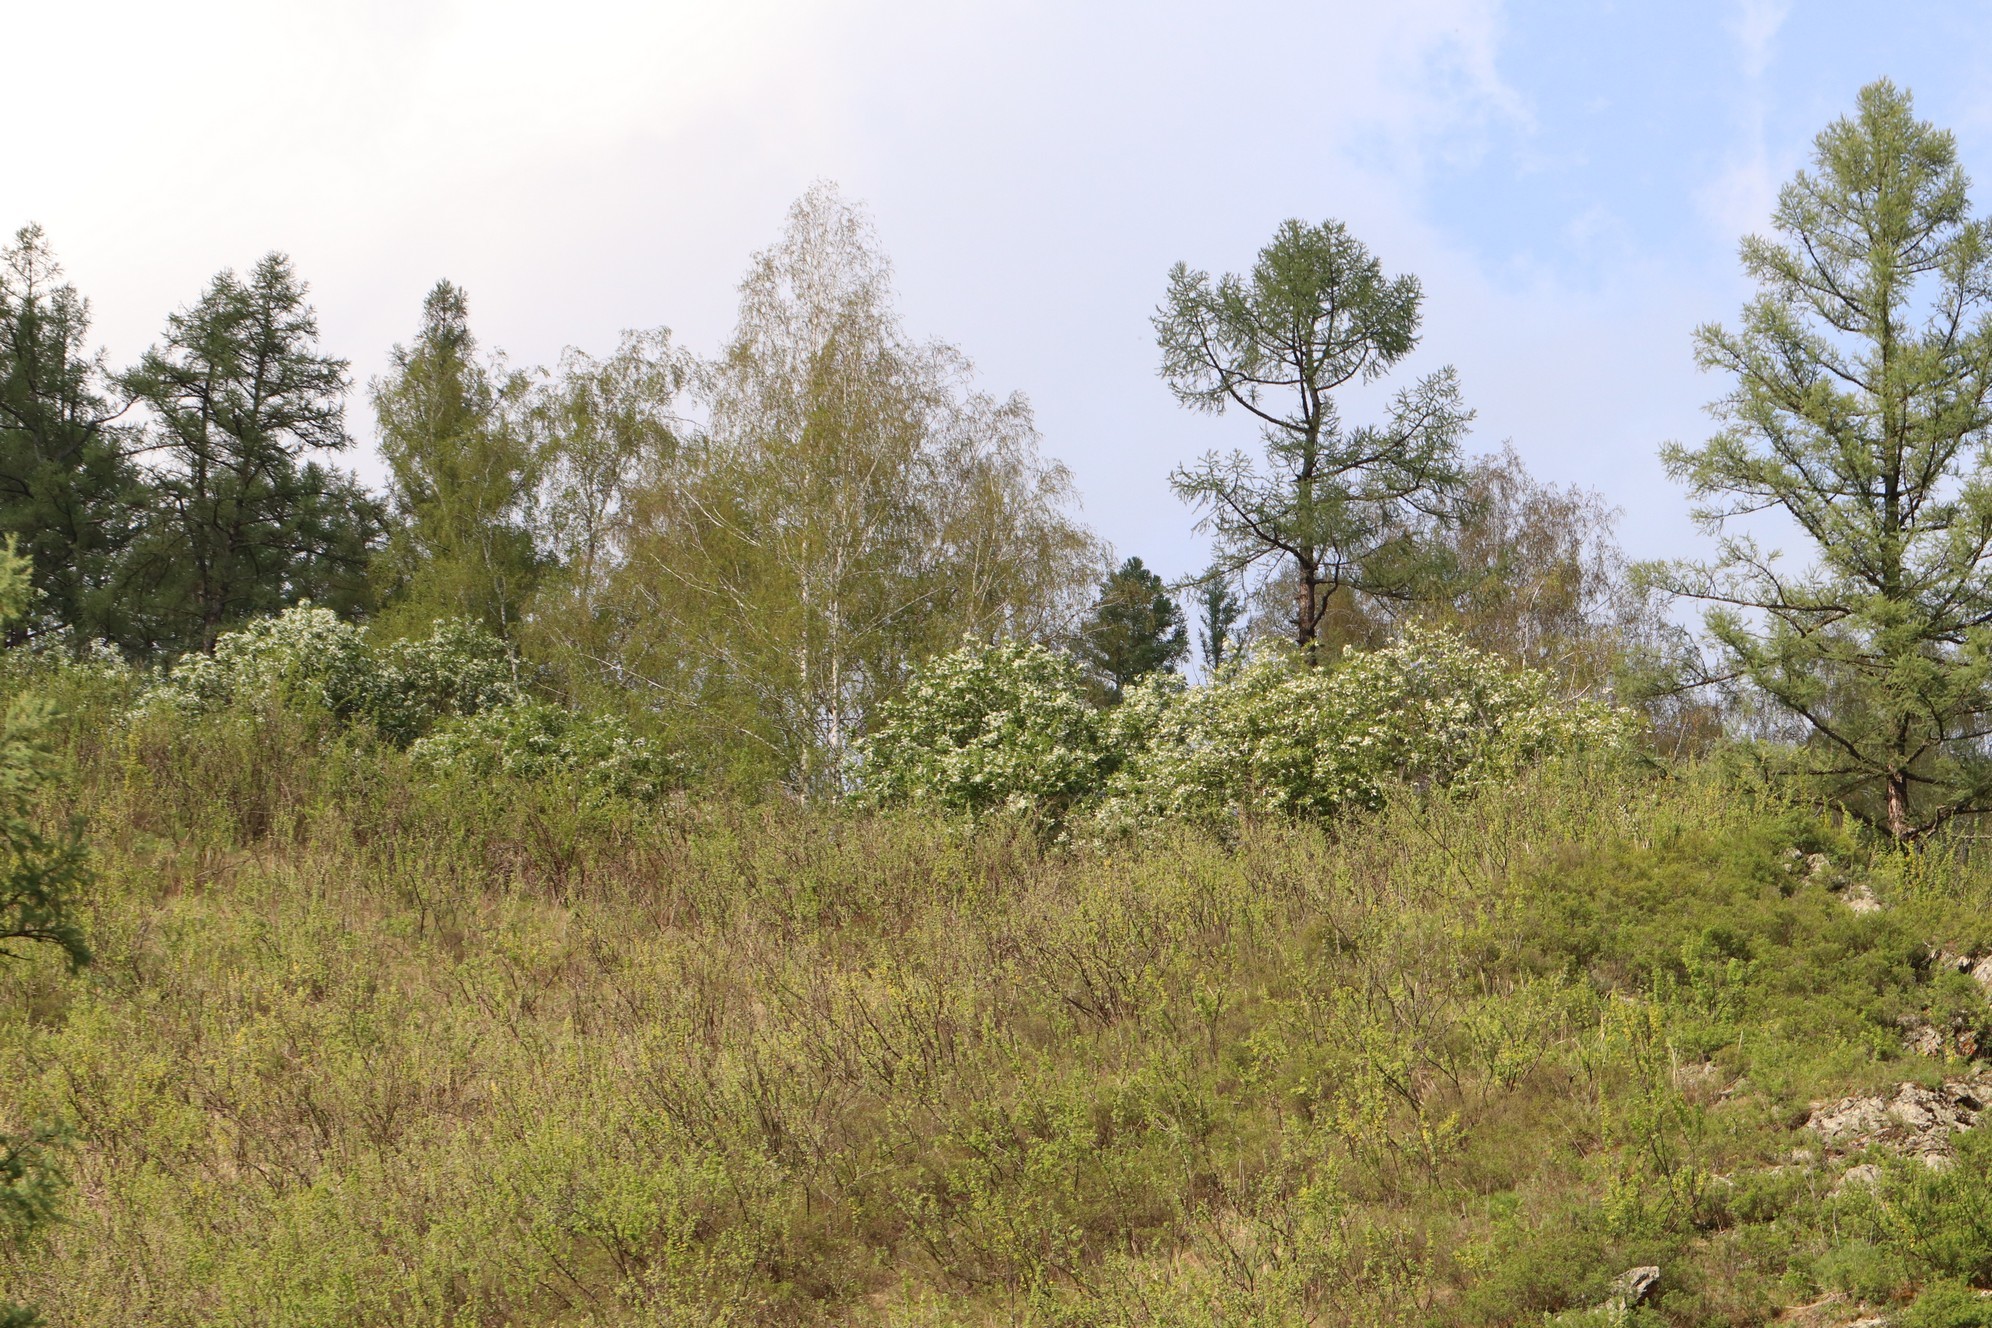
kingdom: Plantae
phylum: Tracheophyta
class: Magnoliopsida
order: Rosales
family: Rosaceae
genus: Prunus
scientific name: Prunus padus
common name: Bird cherry
